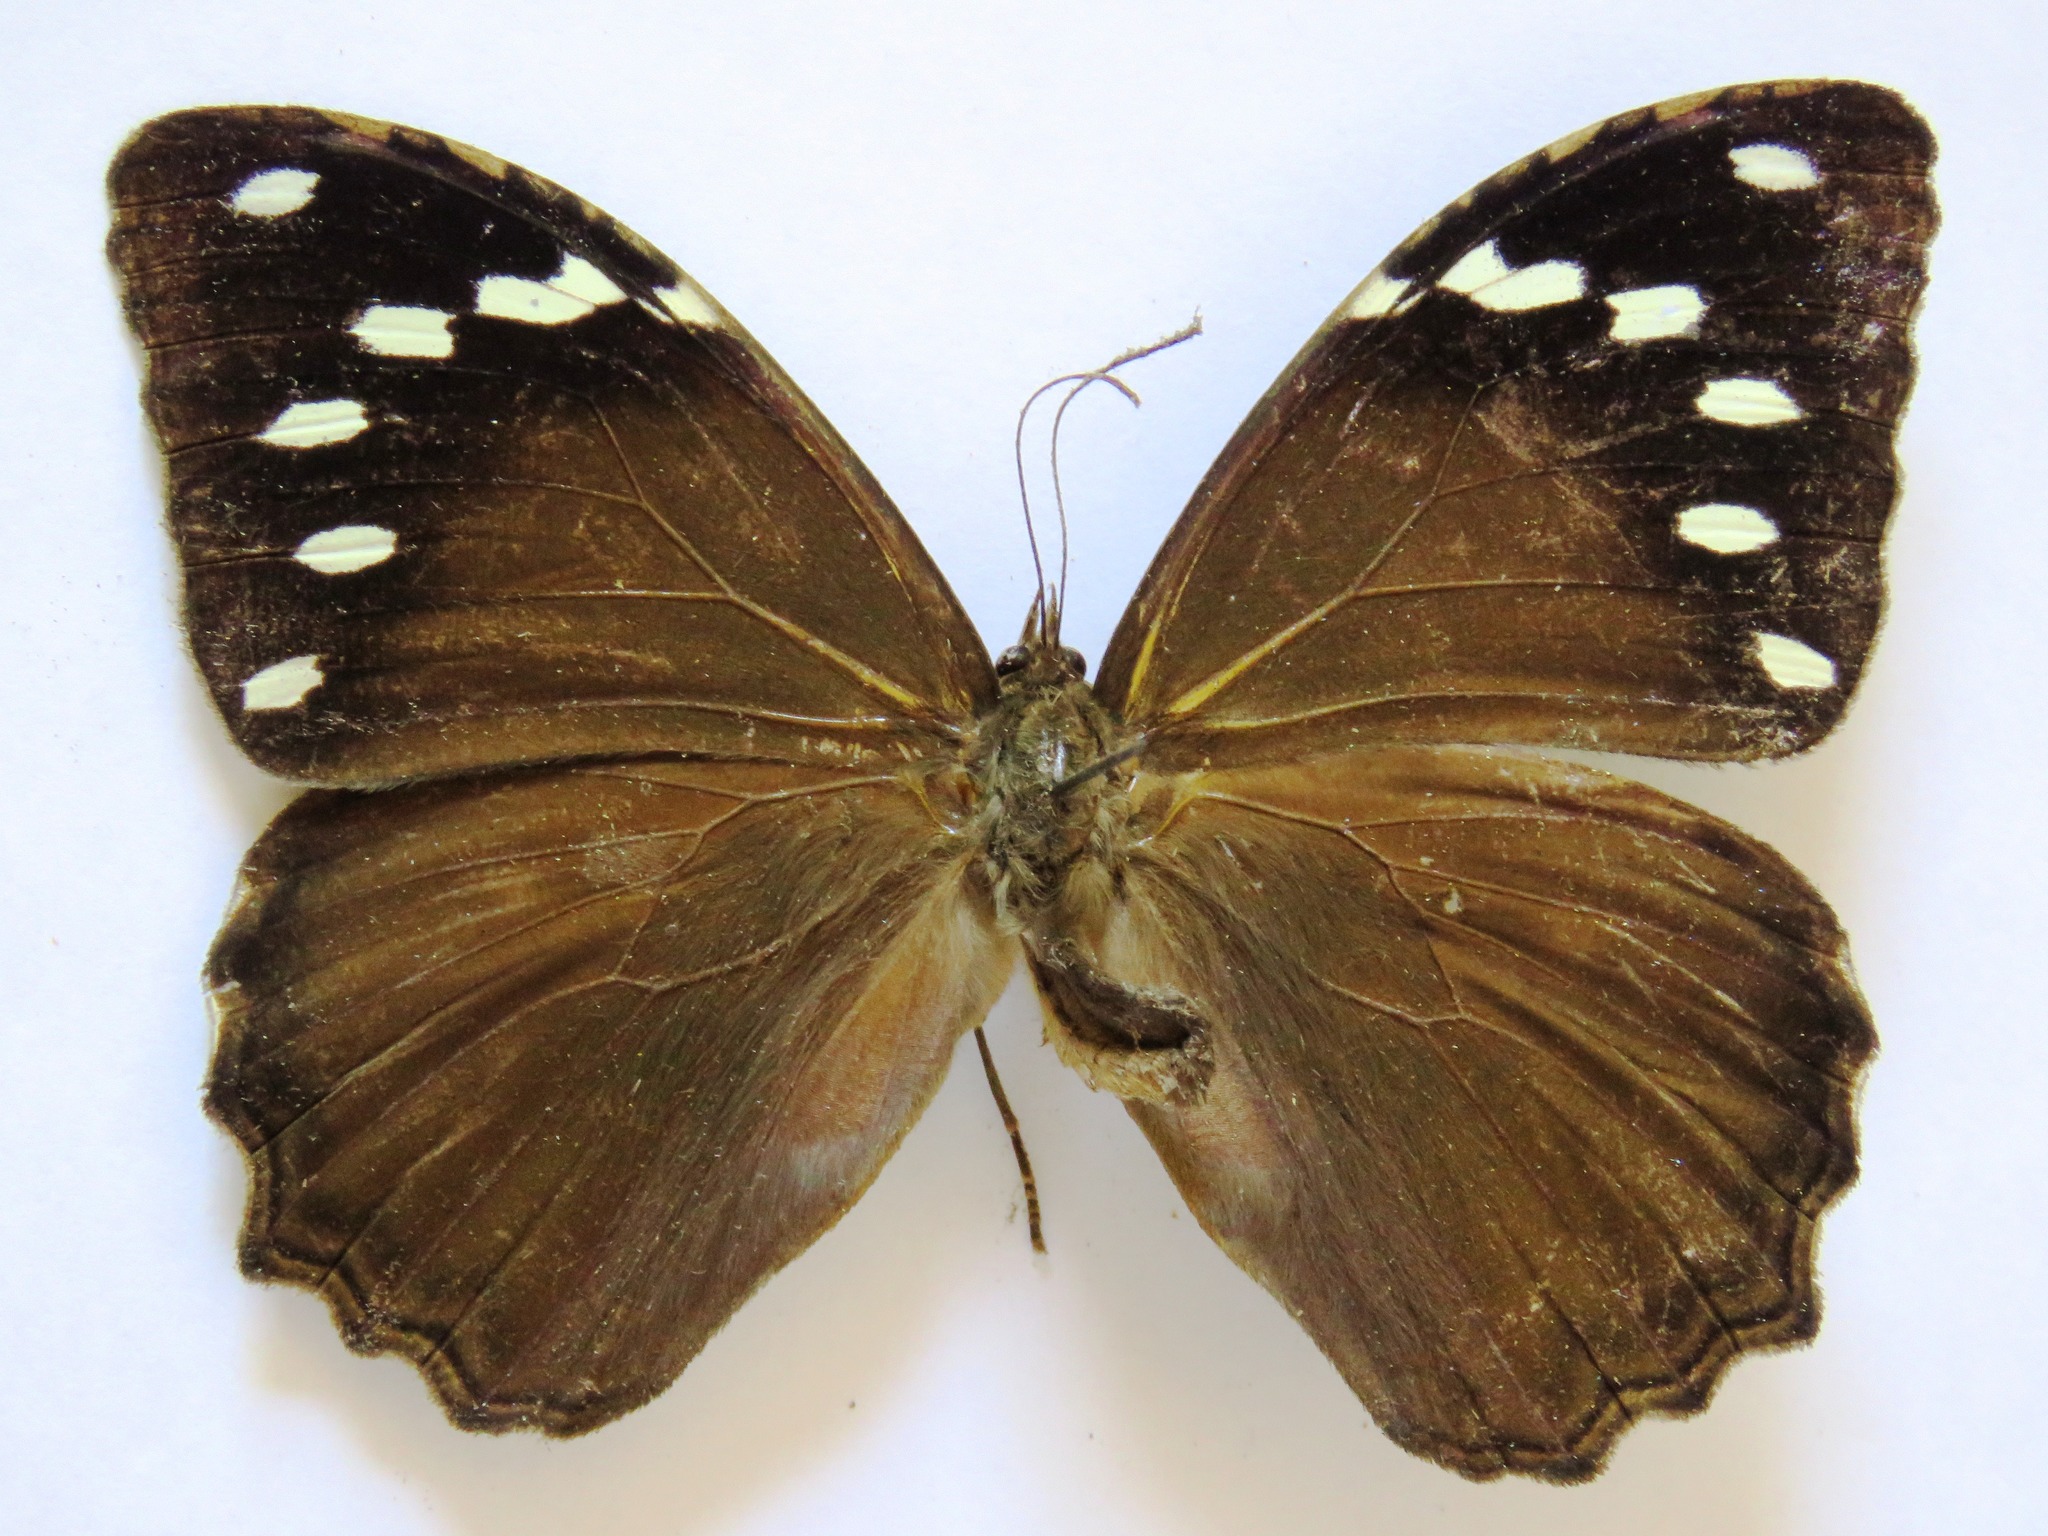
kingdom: Animalia
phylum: Arthropoda
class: Insecta
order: Lepidoptera
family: Nymphalidae
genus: Manataria
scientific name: Manataria maculata
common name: White-spotted satyr
